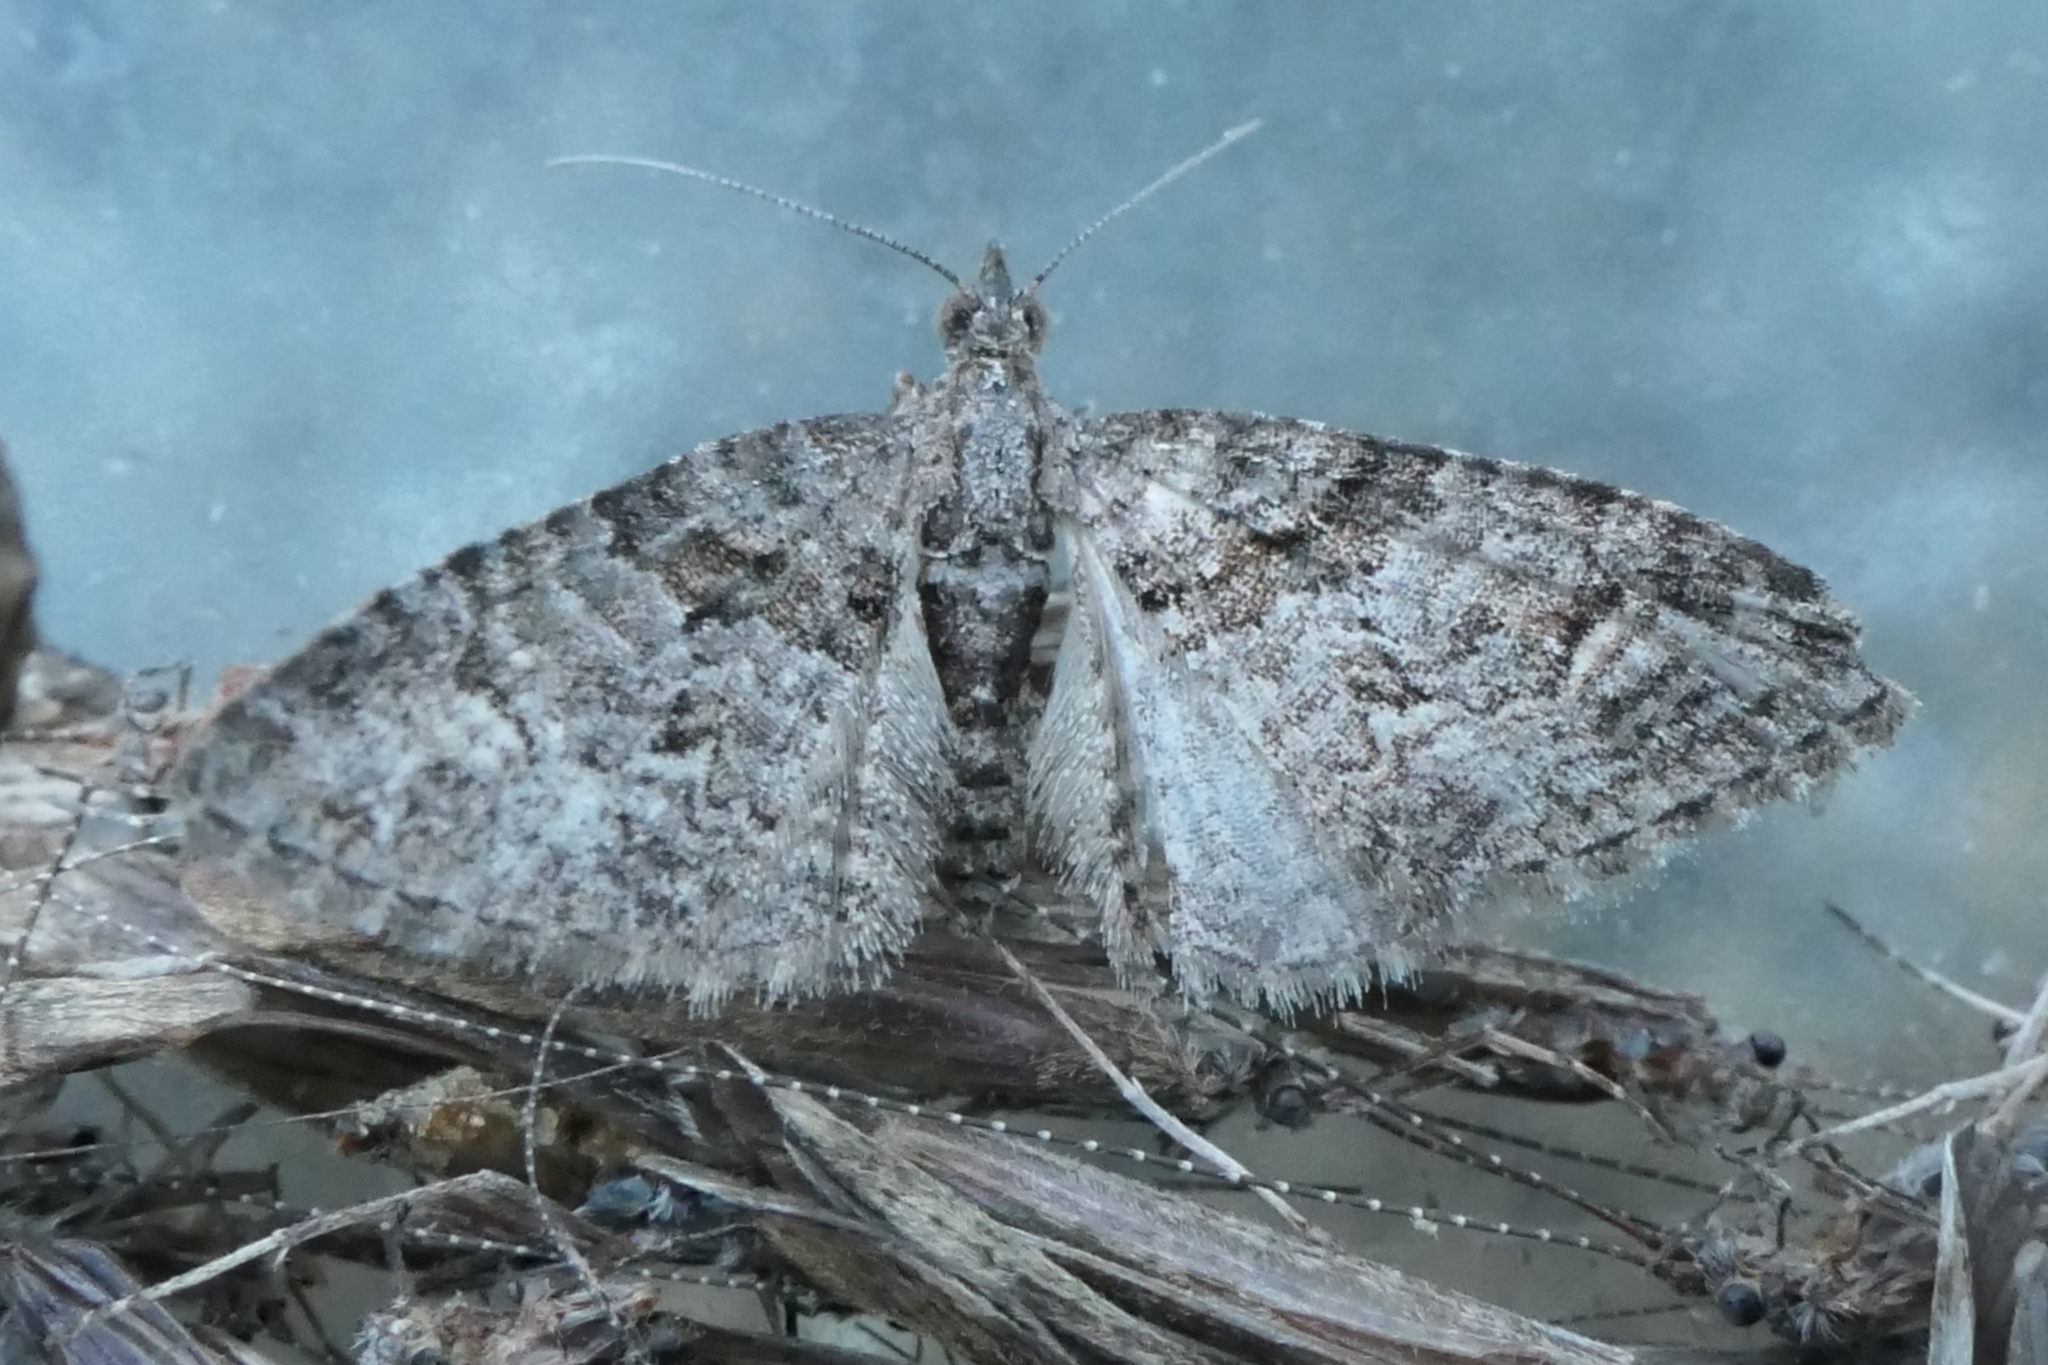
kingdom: Animalia
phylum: Arthropoda
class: Insecta
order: Lepidoptera
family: Geometridae
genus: Phrissogonus
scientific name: Phrissogonus laticostata
